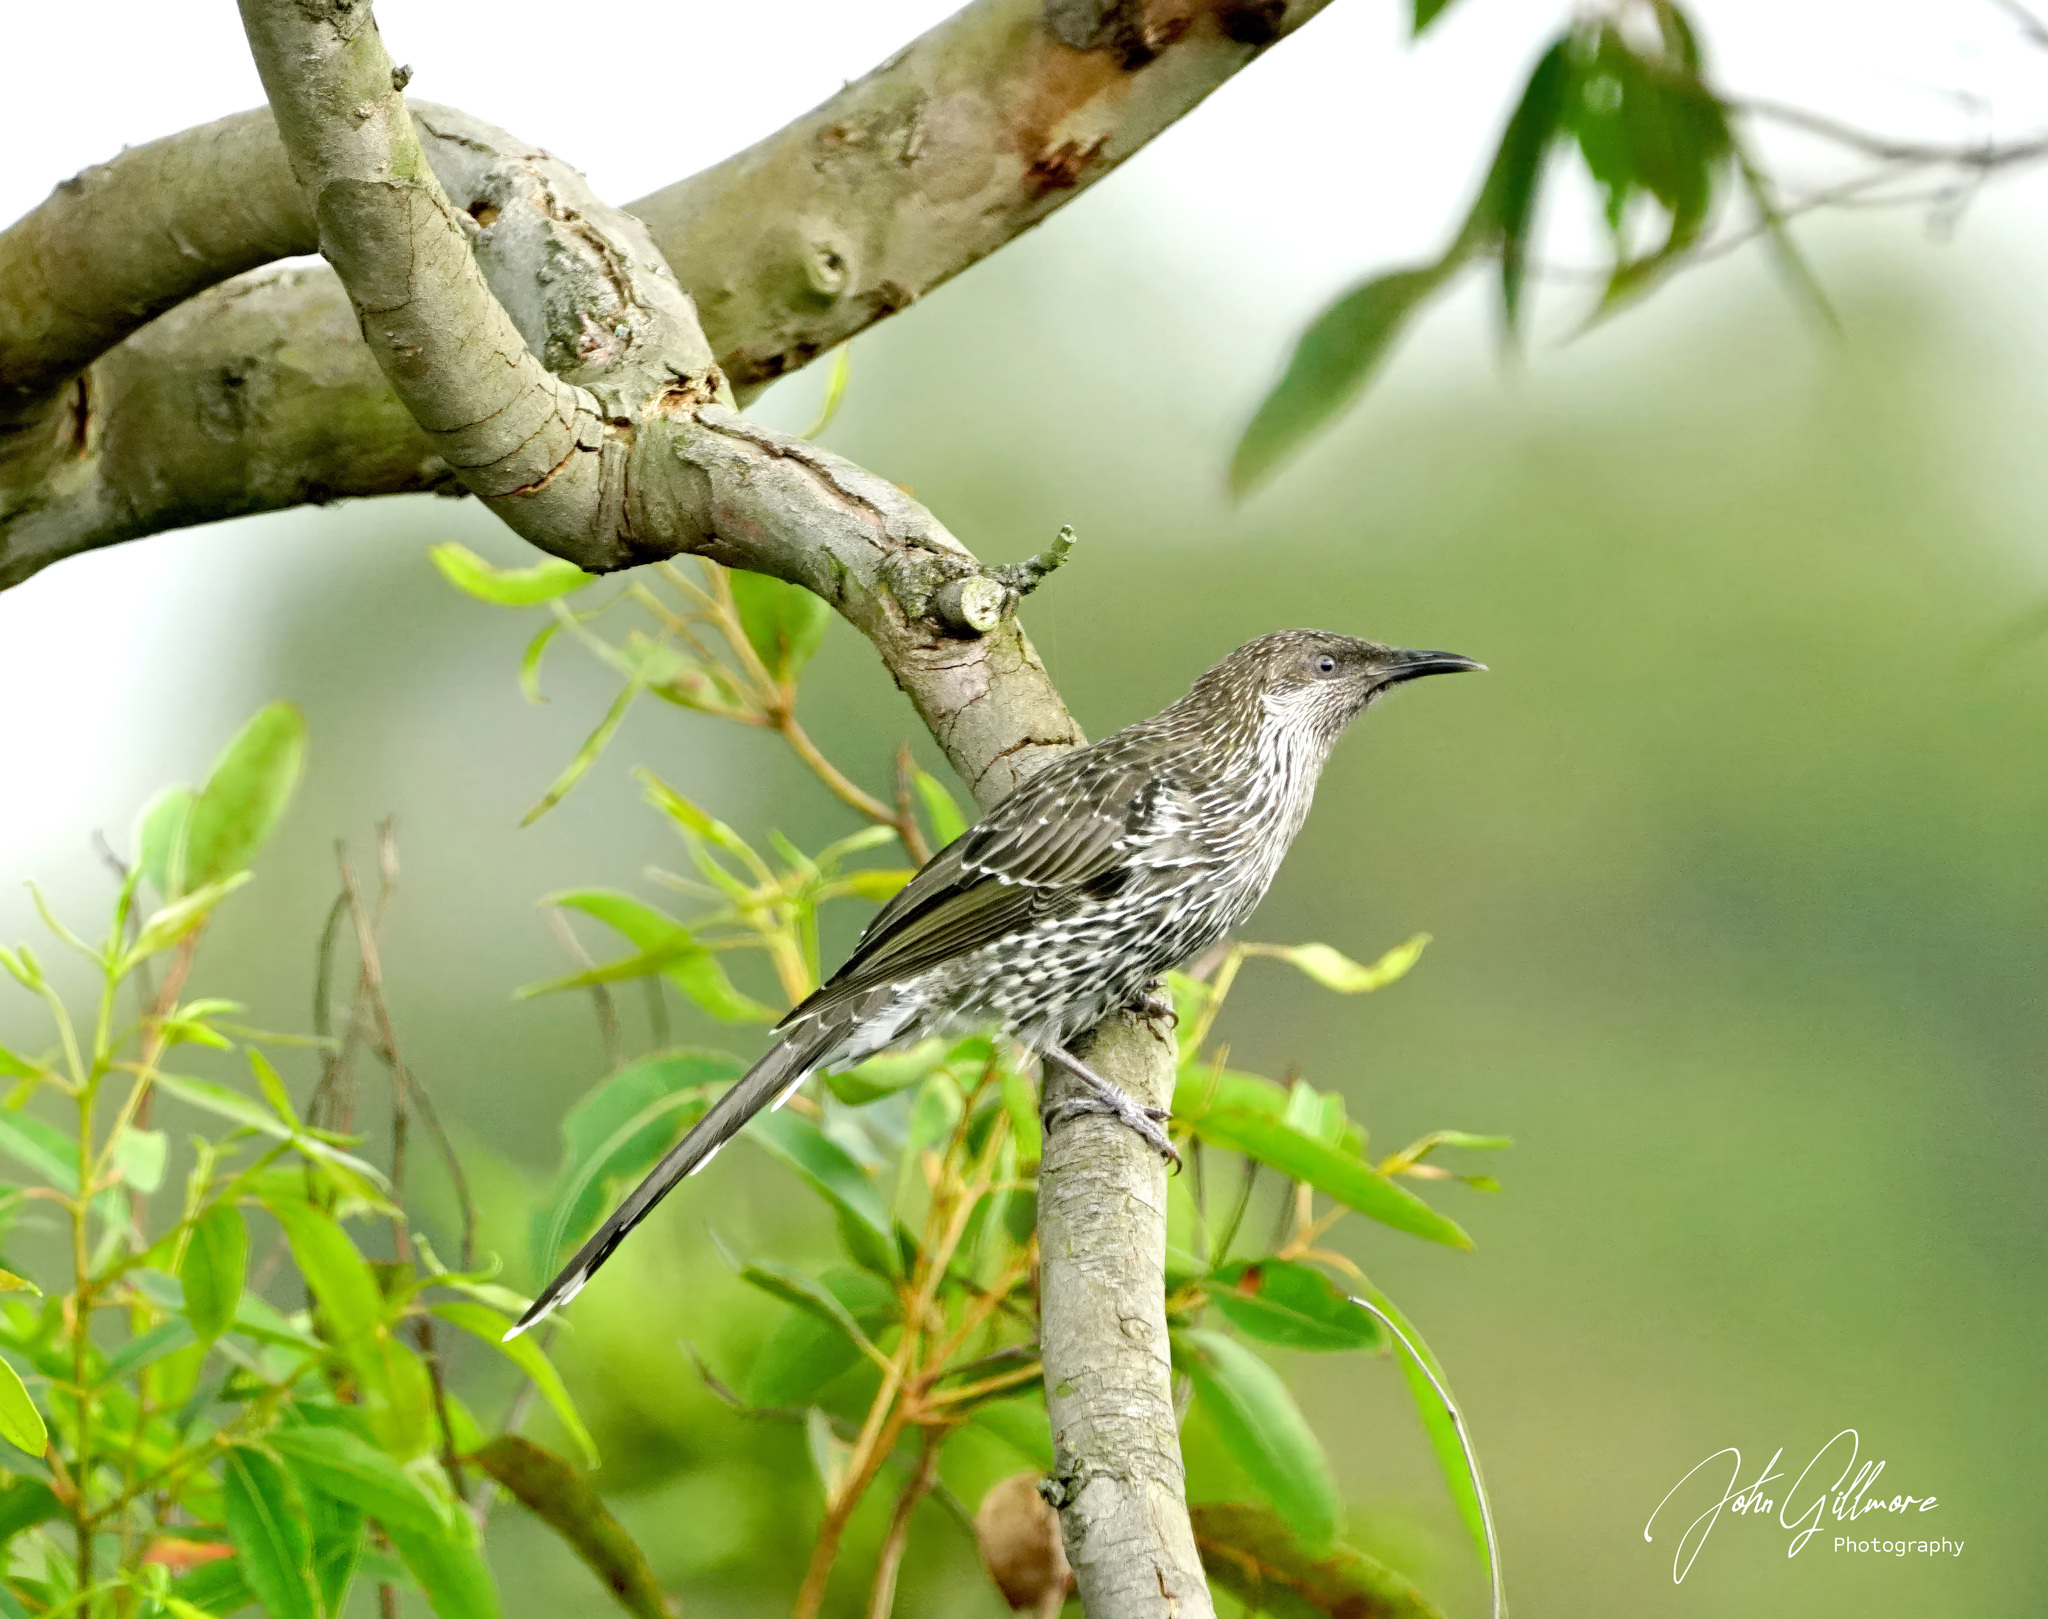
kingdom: Animalia
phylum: Chordata
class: Aves
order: Passeriformes
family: Meliphagidae
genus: Anthochaera
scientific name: Anthochaera chrysoptera
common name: Little wattlebird
